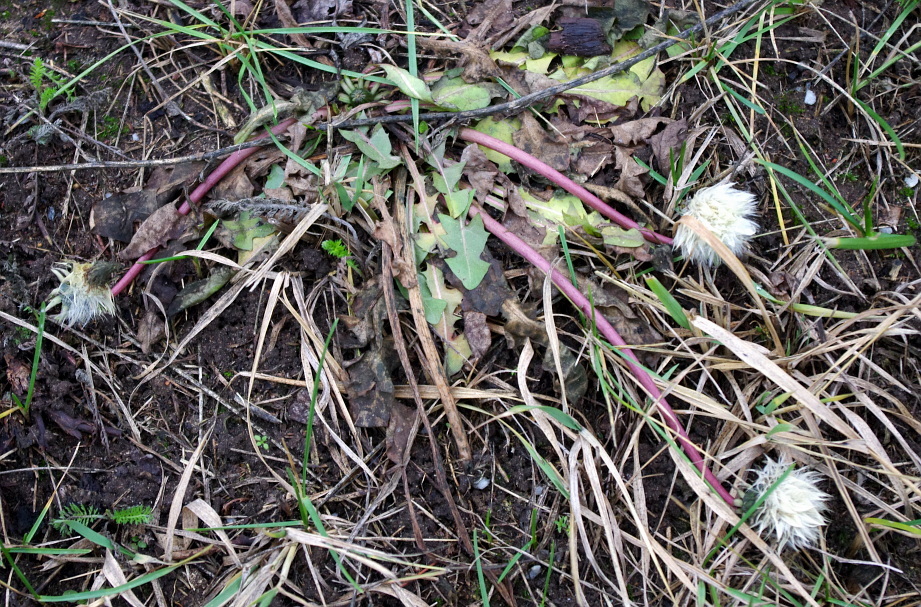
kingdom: Plantae
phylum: Tracheophyta
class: Magnoliopsida
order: Asterales
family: Asteraceae
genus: Taraxacum
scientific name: Taraxacum officinale
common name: Common dandelion
